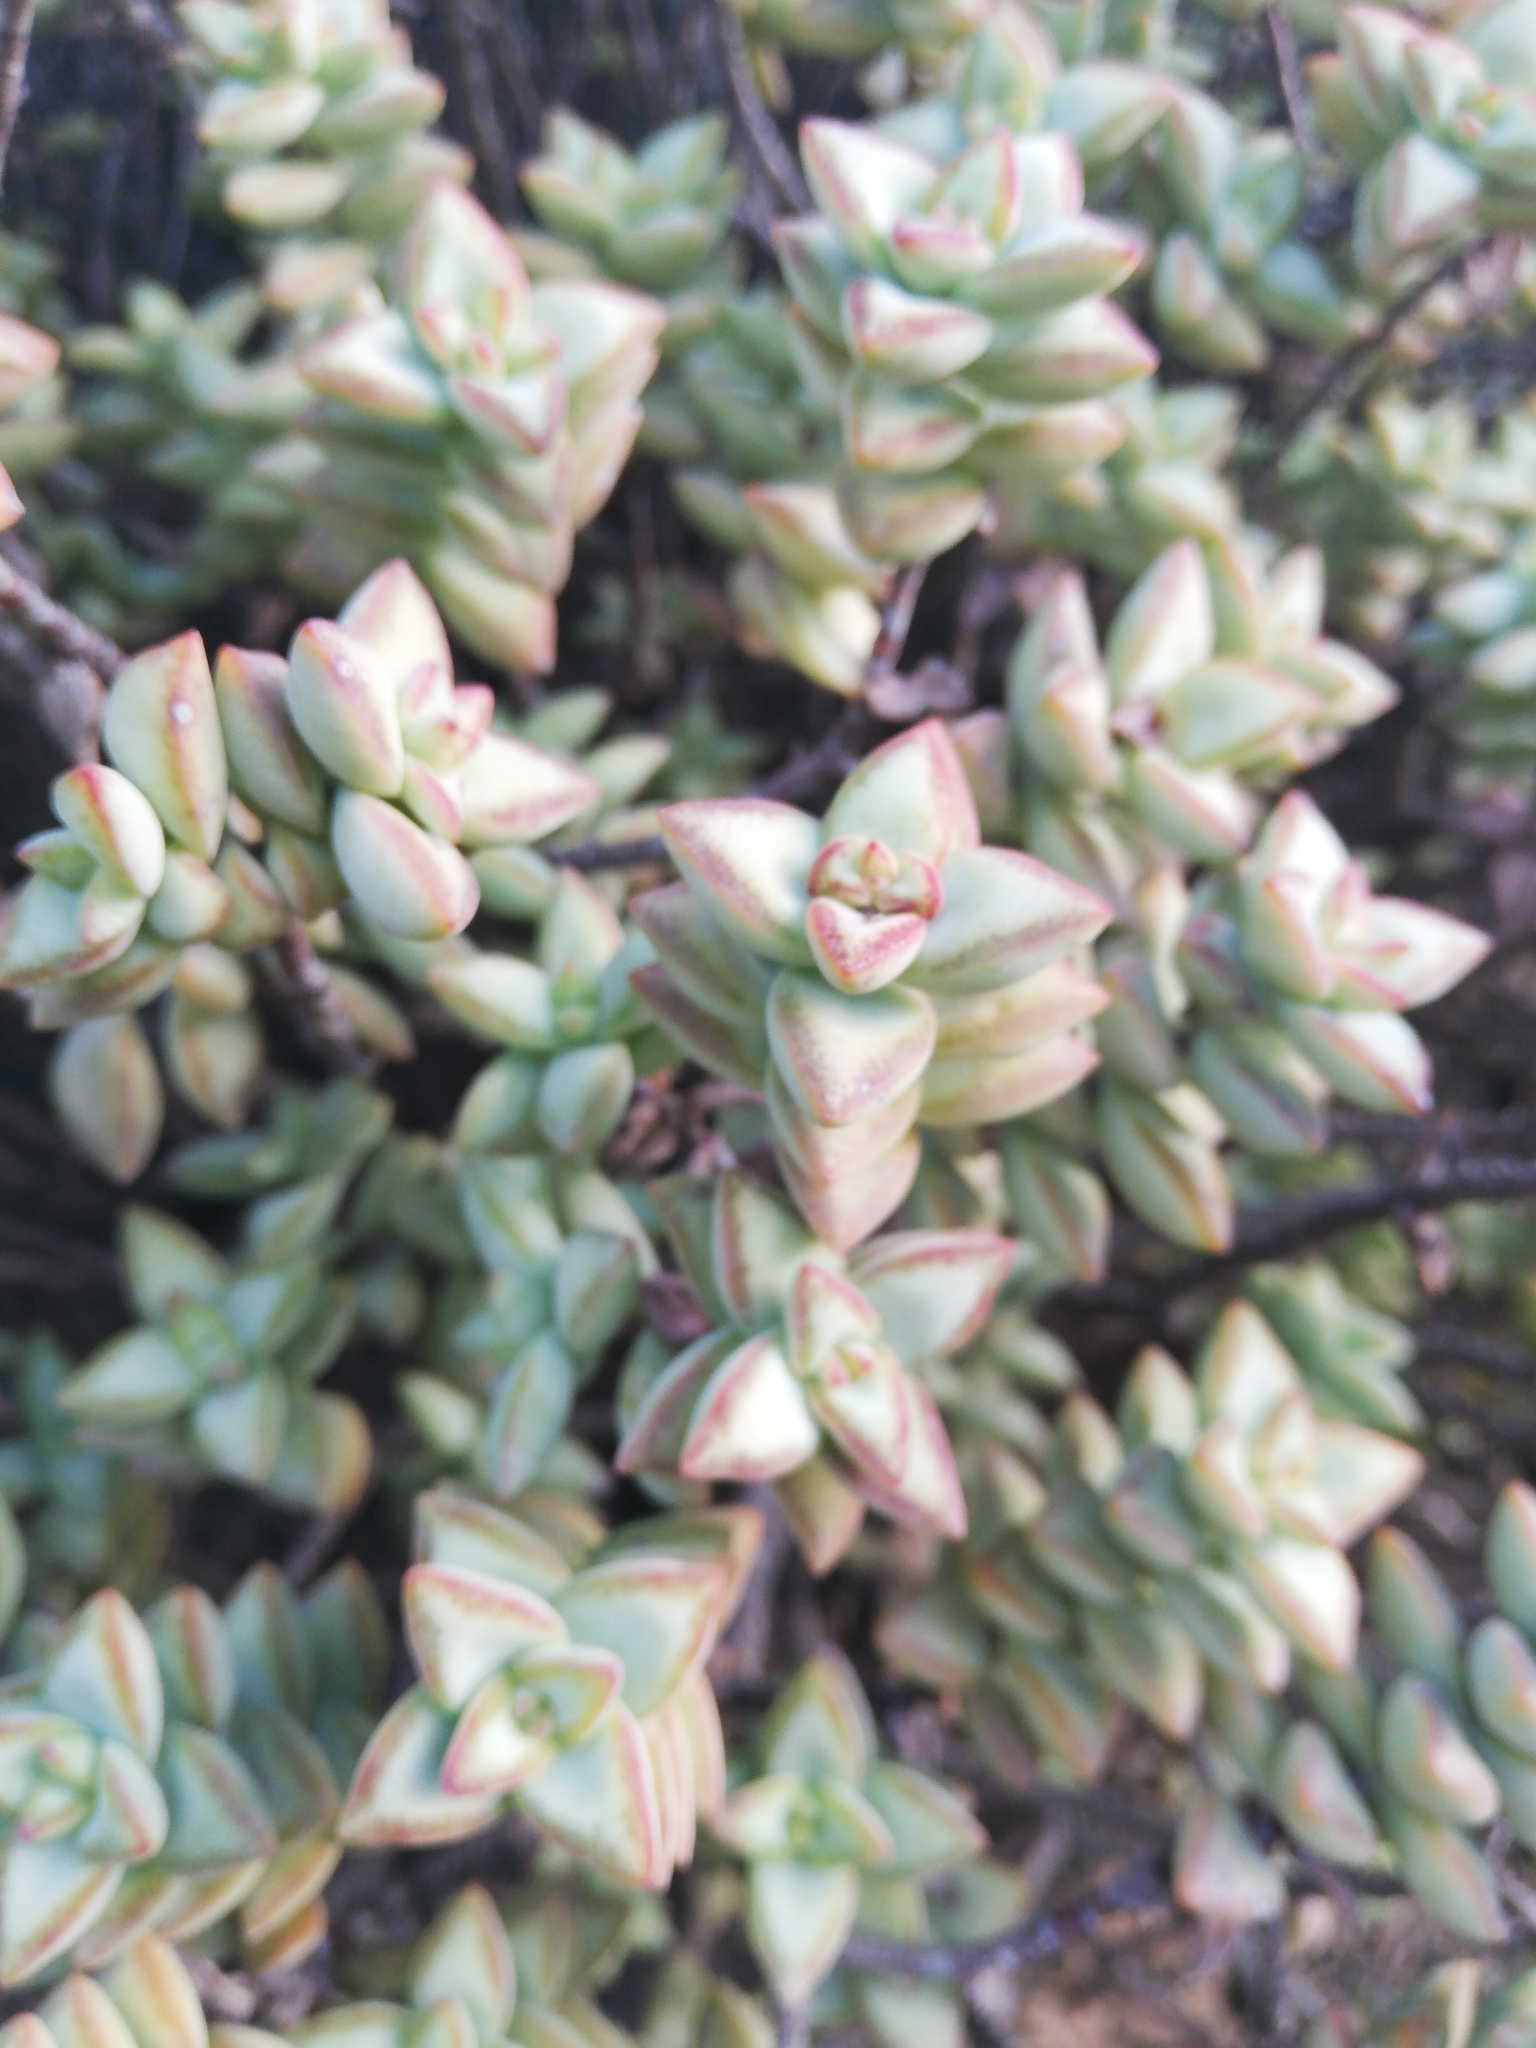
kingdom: Plantae
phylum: Tracheophyta
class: Magnoliopsida
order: Saxifragales
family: Crassulaceae
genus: Crassula
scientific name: Crassula rupestris
